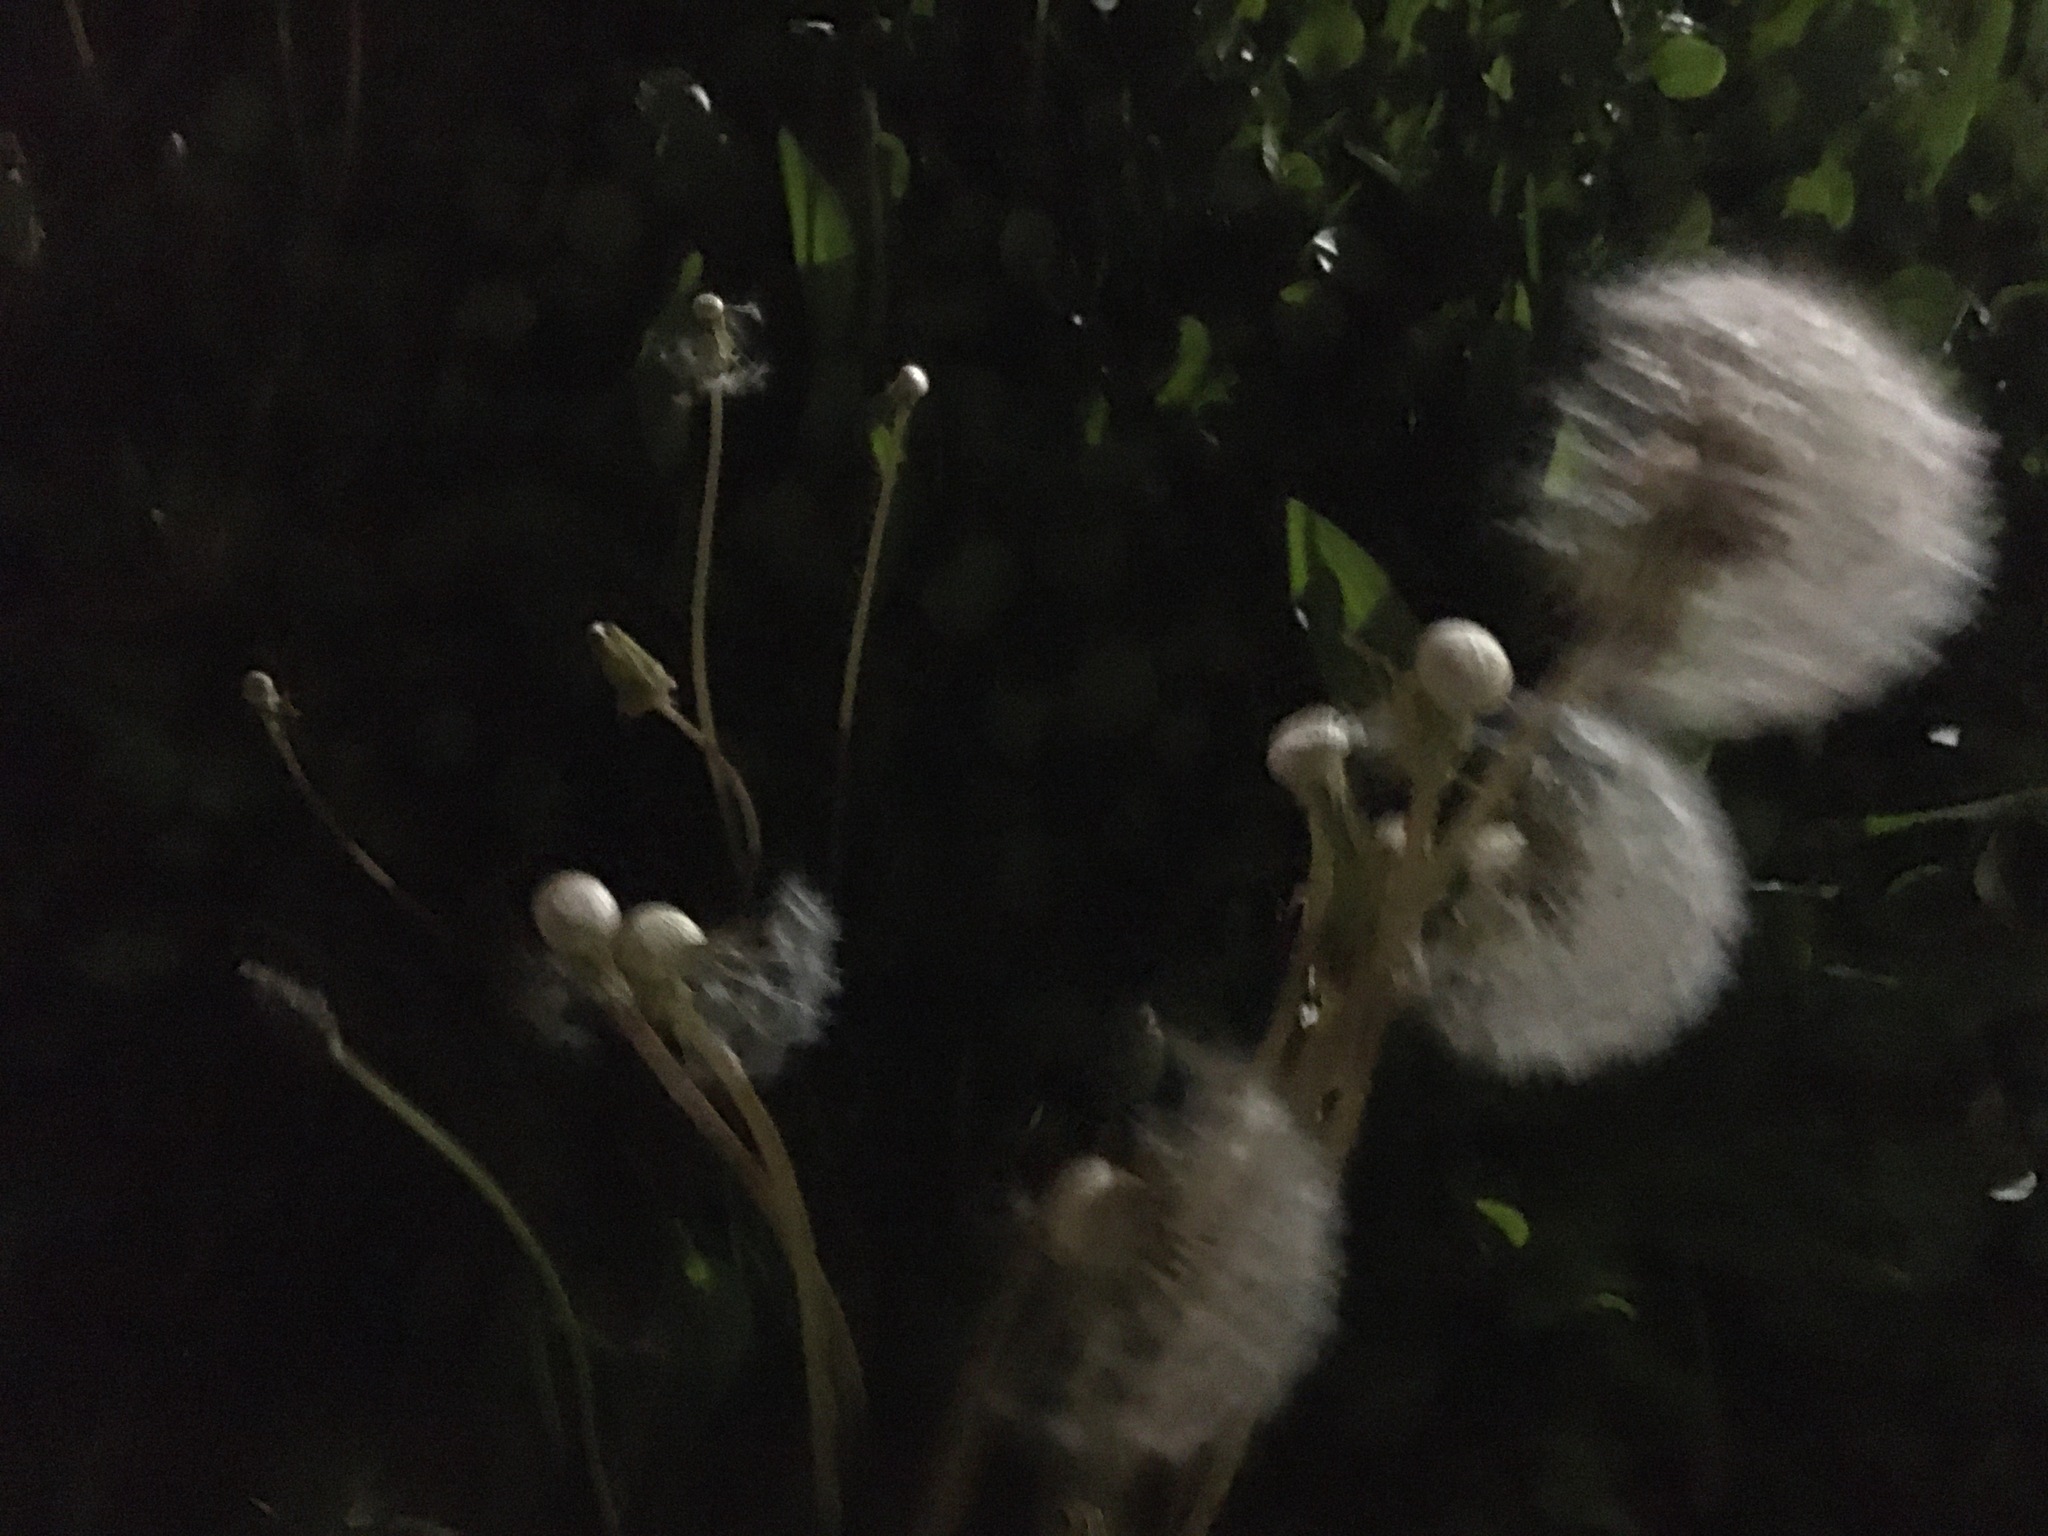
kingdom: Plantae
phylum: Tracheophyta
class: Magnoliopsida
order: Asterales
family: Asteraceae
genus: Taraxacum
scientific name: Taraxacum officinale
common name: Common dandelion
